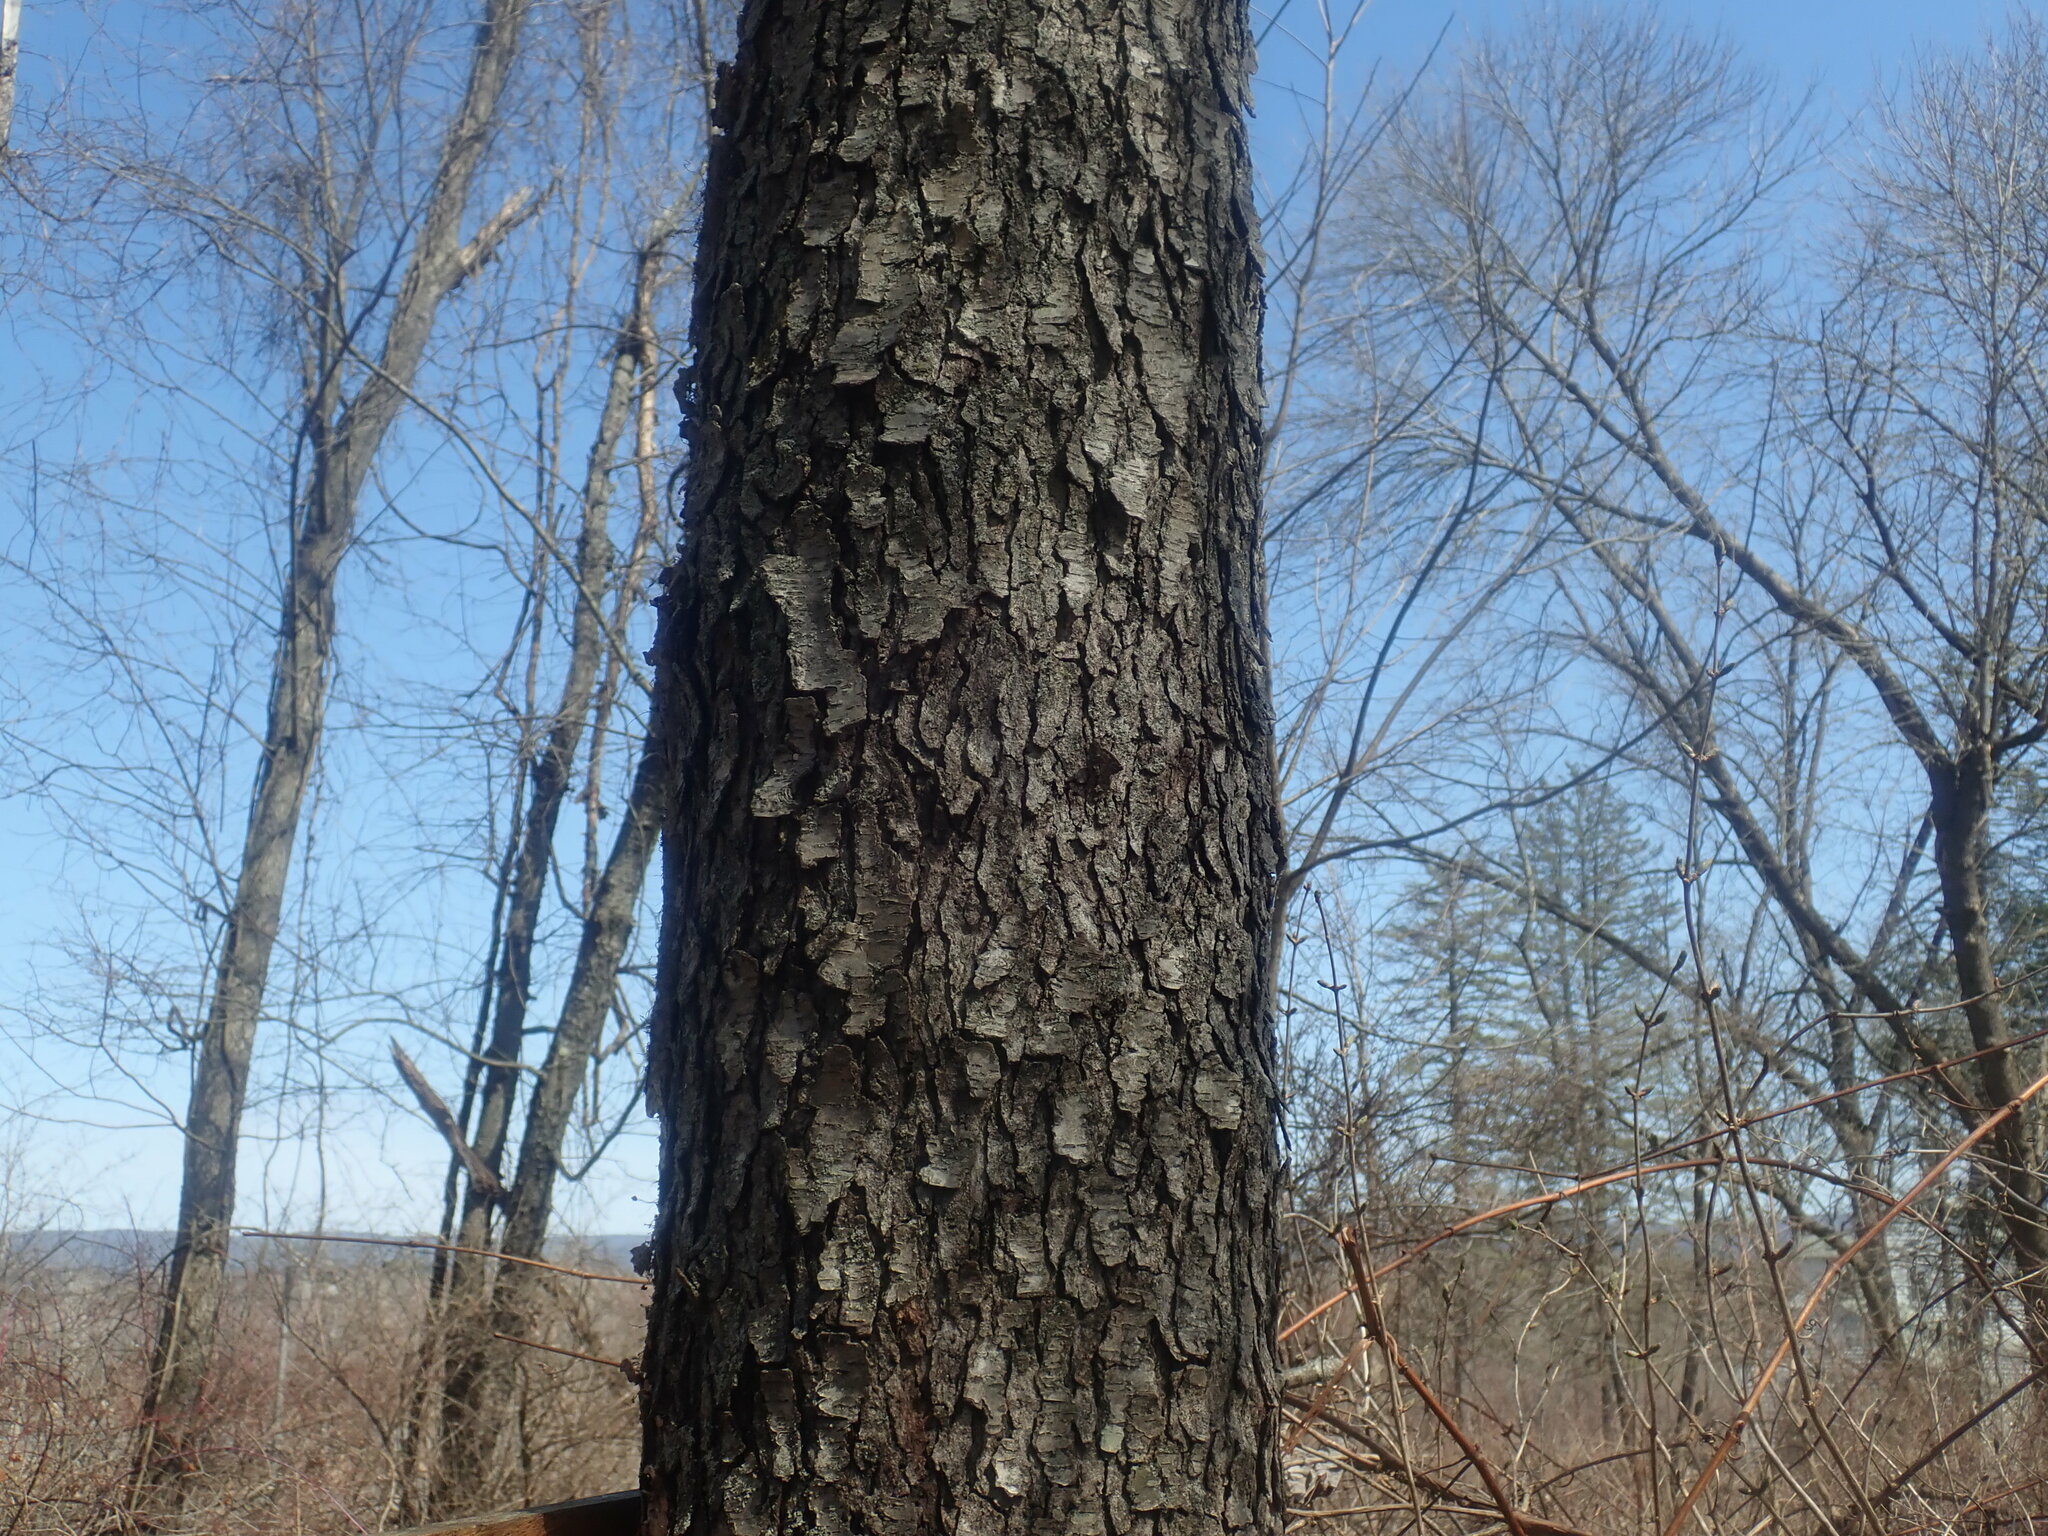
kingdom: Plantae
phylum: Tracheophyta
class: Magnoliopsida
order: Rosales
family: Rosaceae
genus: Prunus
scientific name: Prunus serotina
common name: Black cherry
